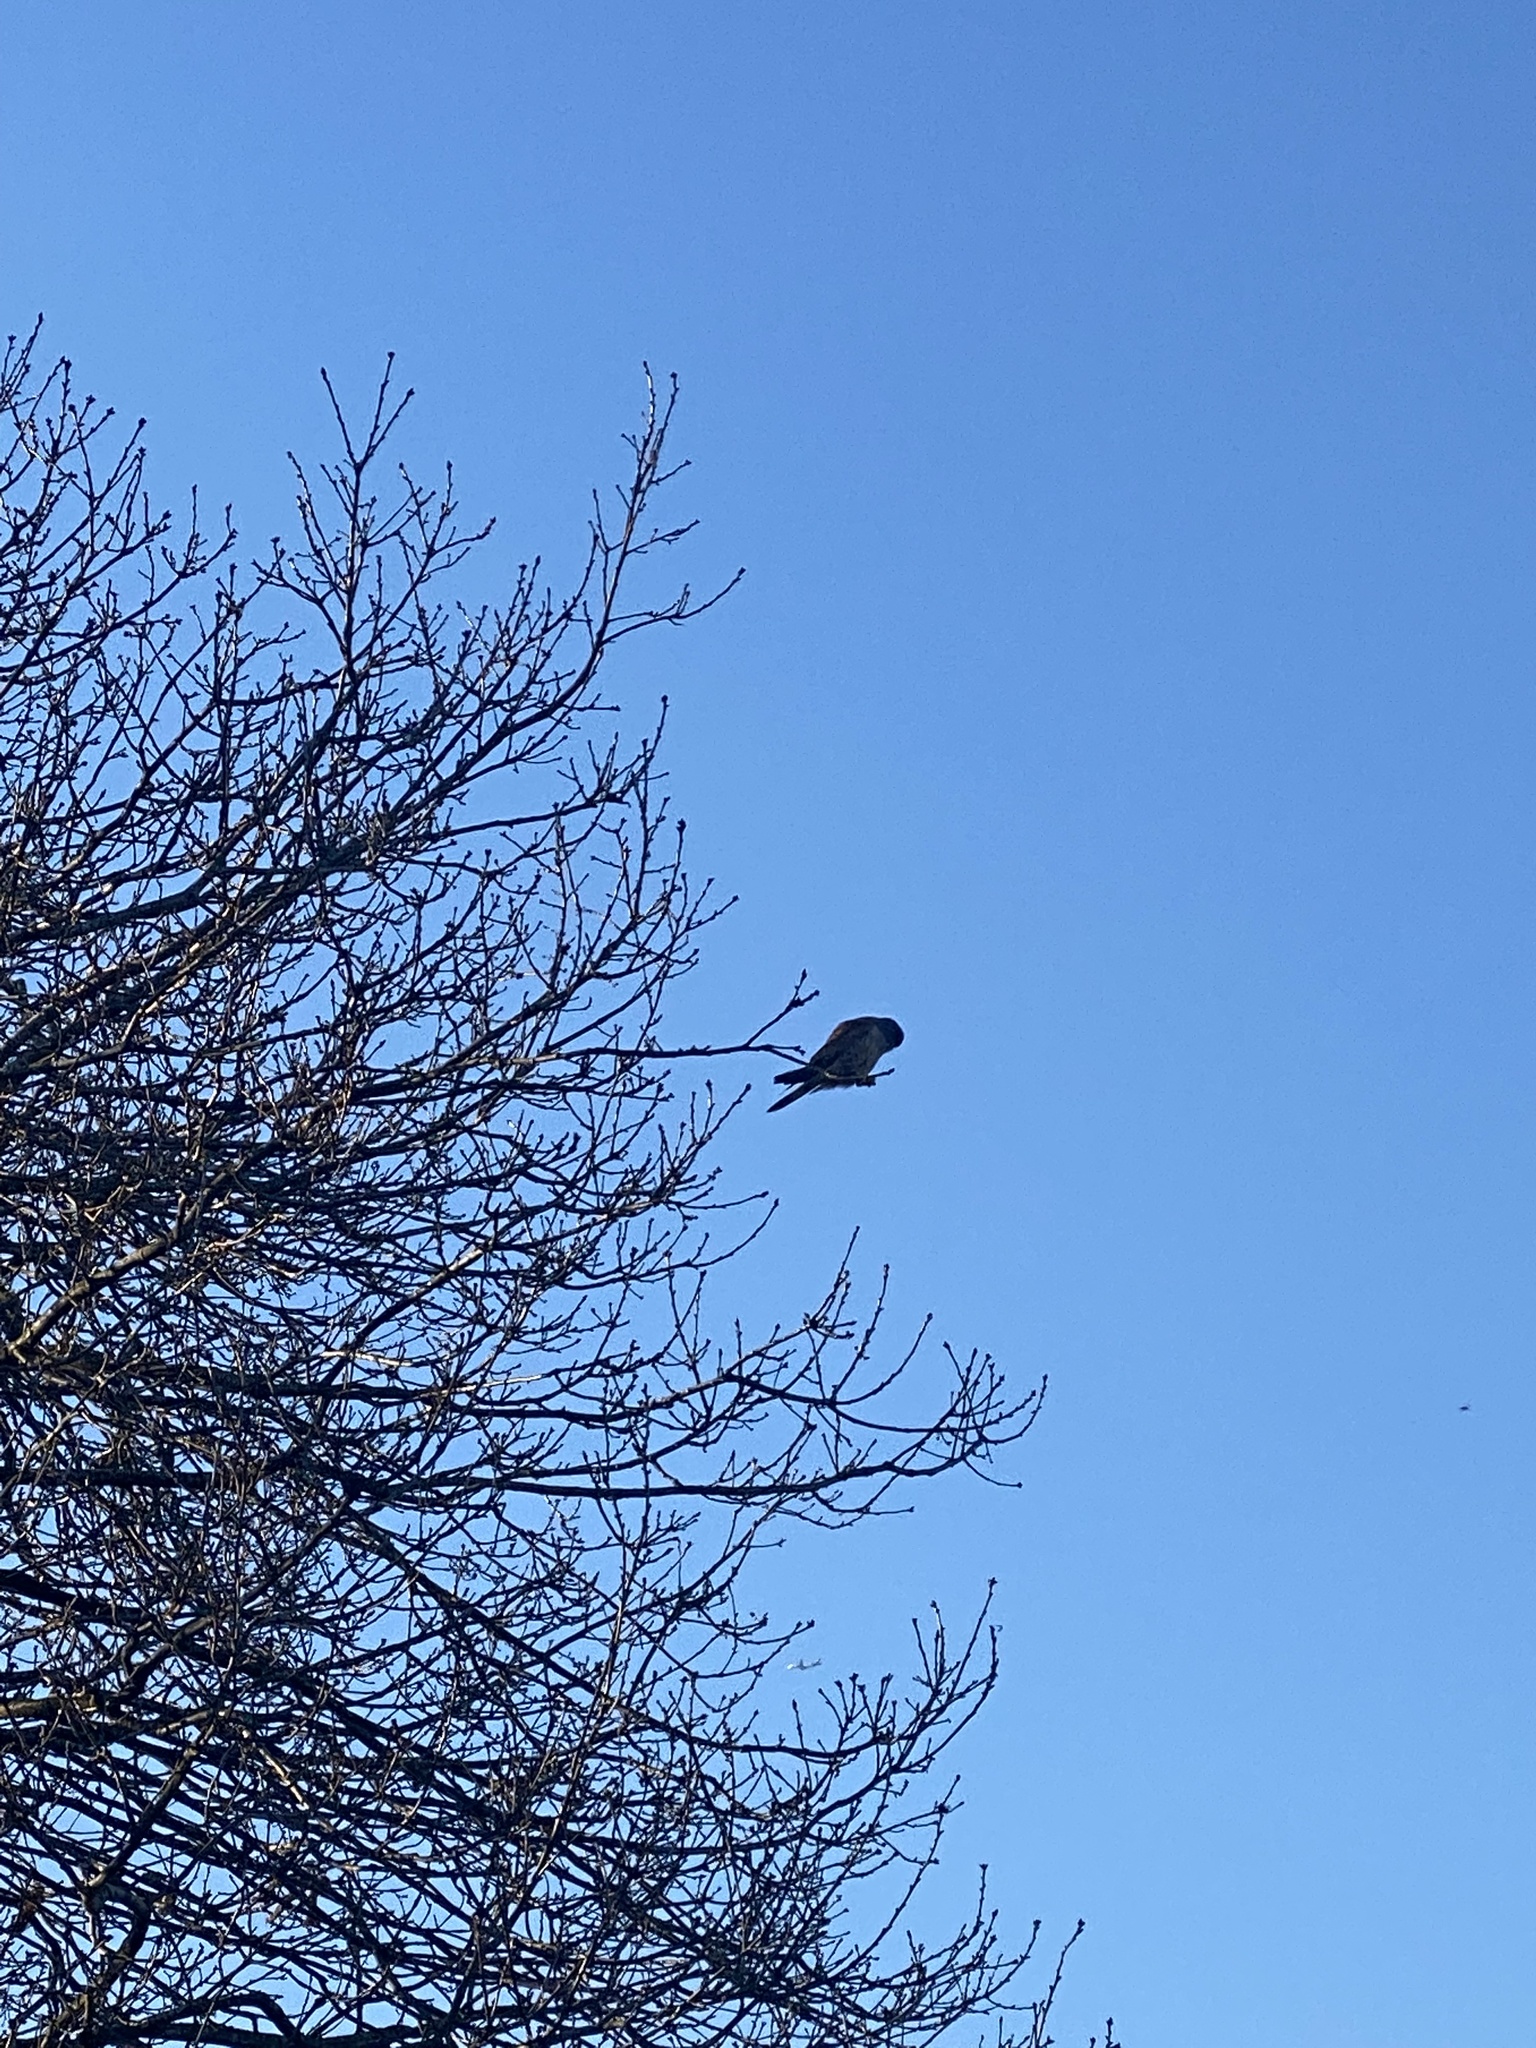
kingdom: Animalia
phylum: Chordata
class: Aves
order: Falconiformes
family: Falconidae
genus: Falco
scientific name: Falco tinnunculus
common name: Common kestrel
